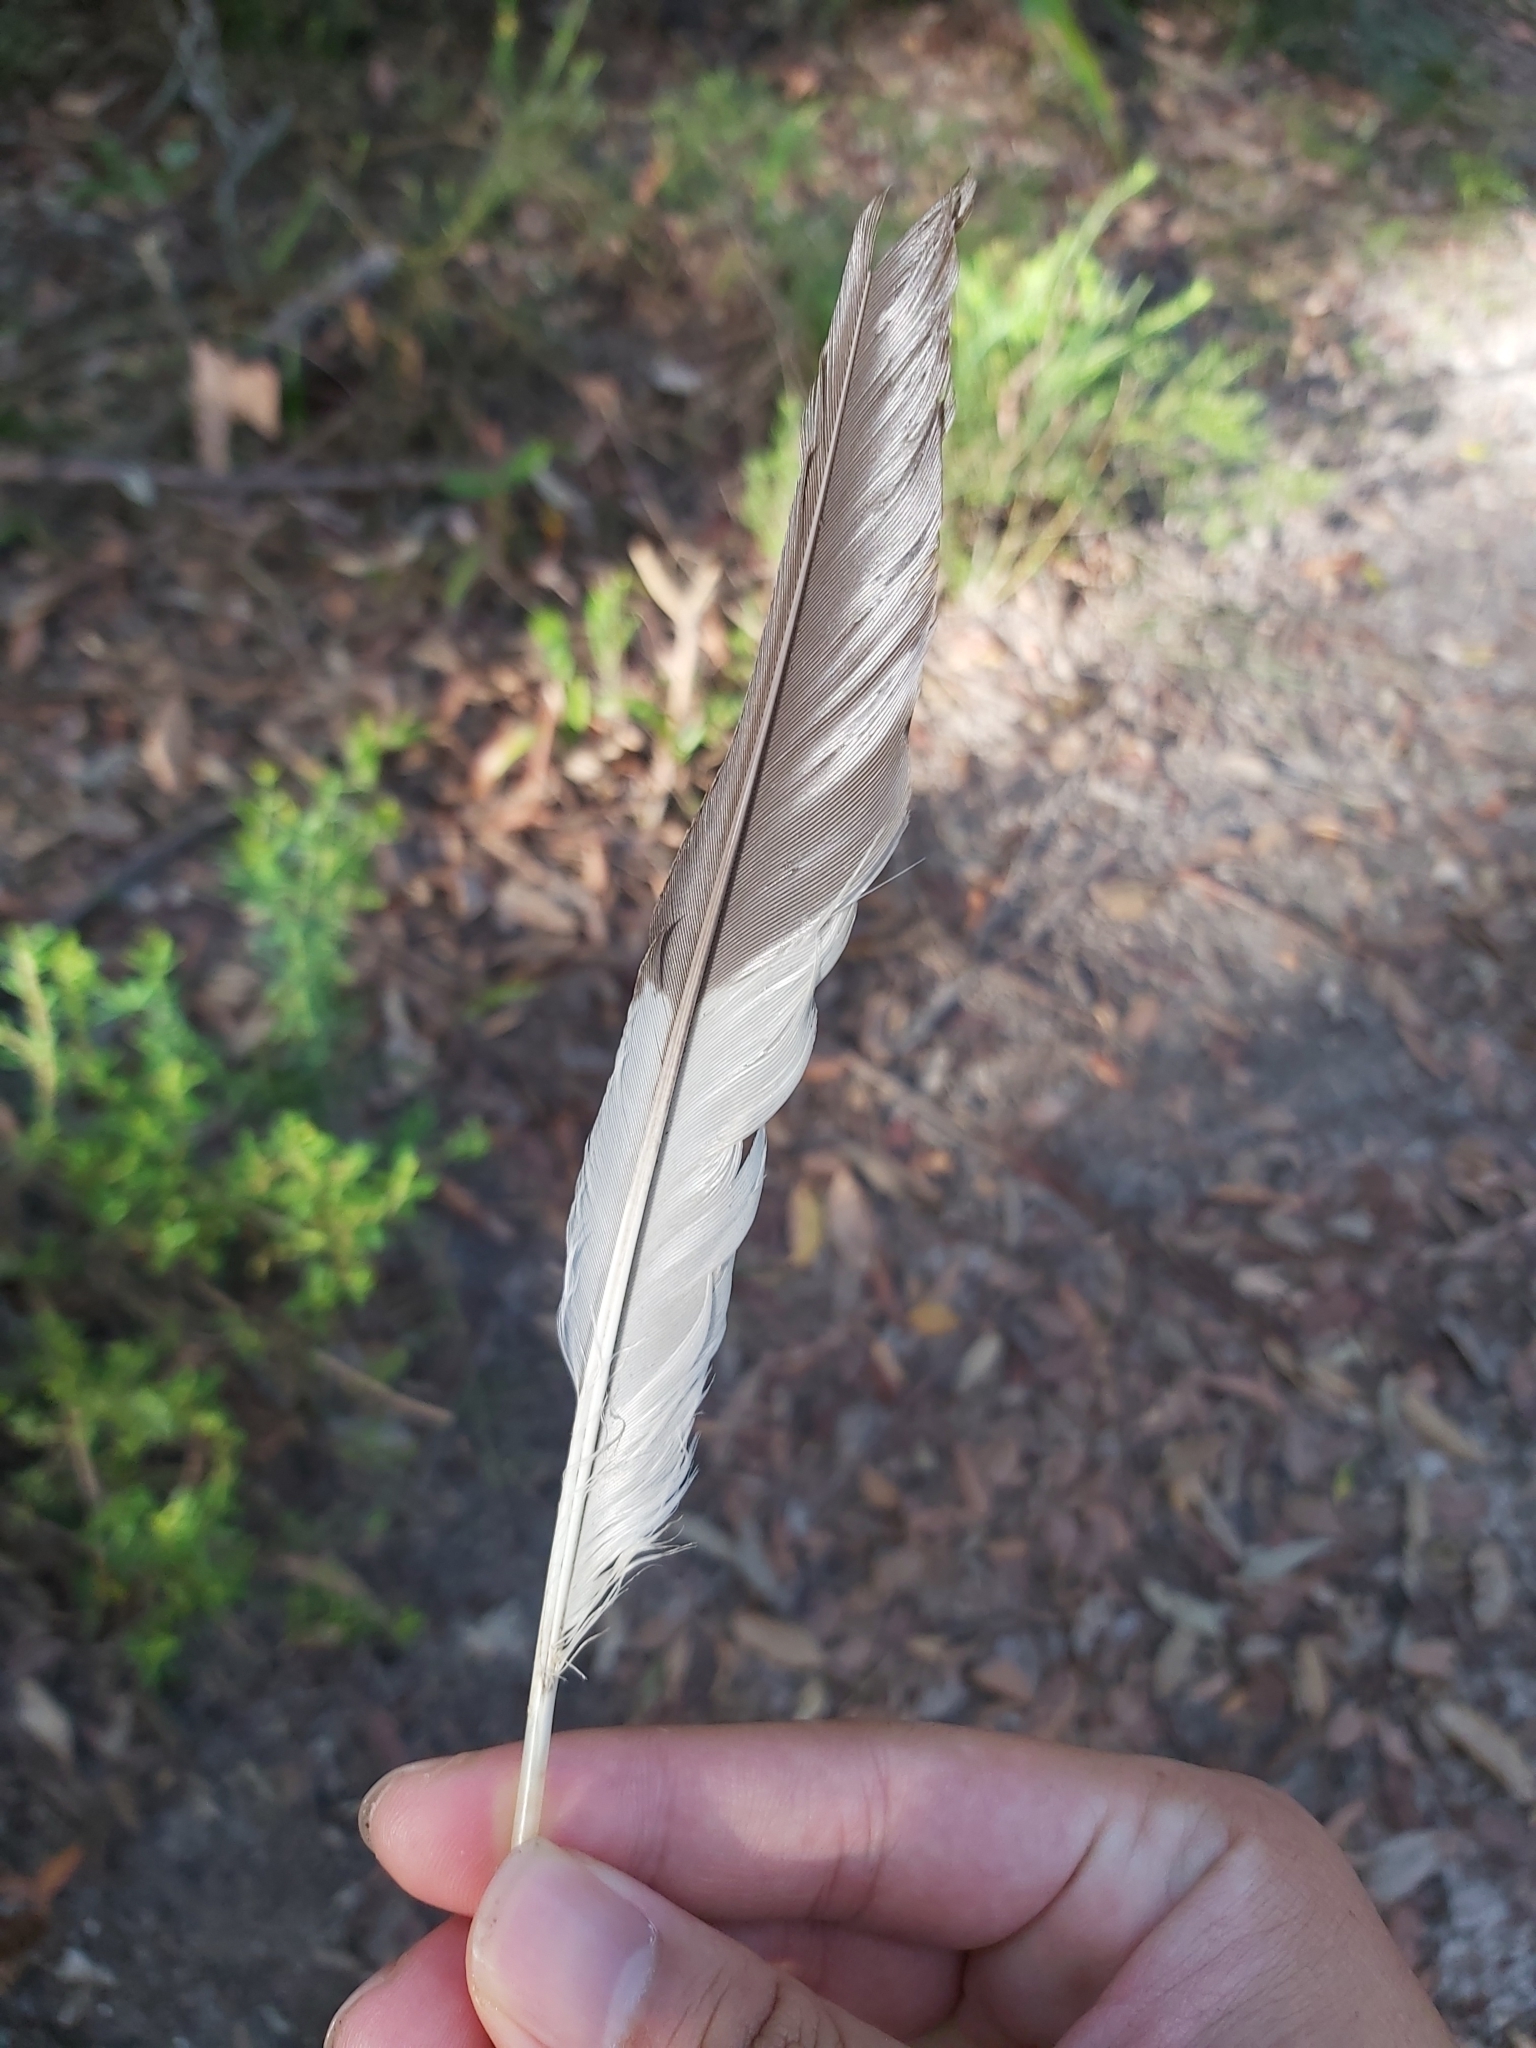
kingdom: Animalia
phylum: Chordata
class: Aves
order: Coraciiformes
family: Alcedinidae
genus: Dacelo
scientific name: Dacelo novaeguineae
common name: Laughing kookaburra
